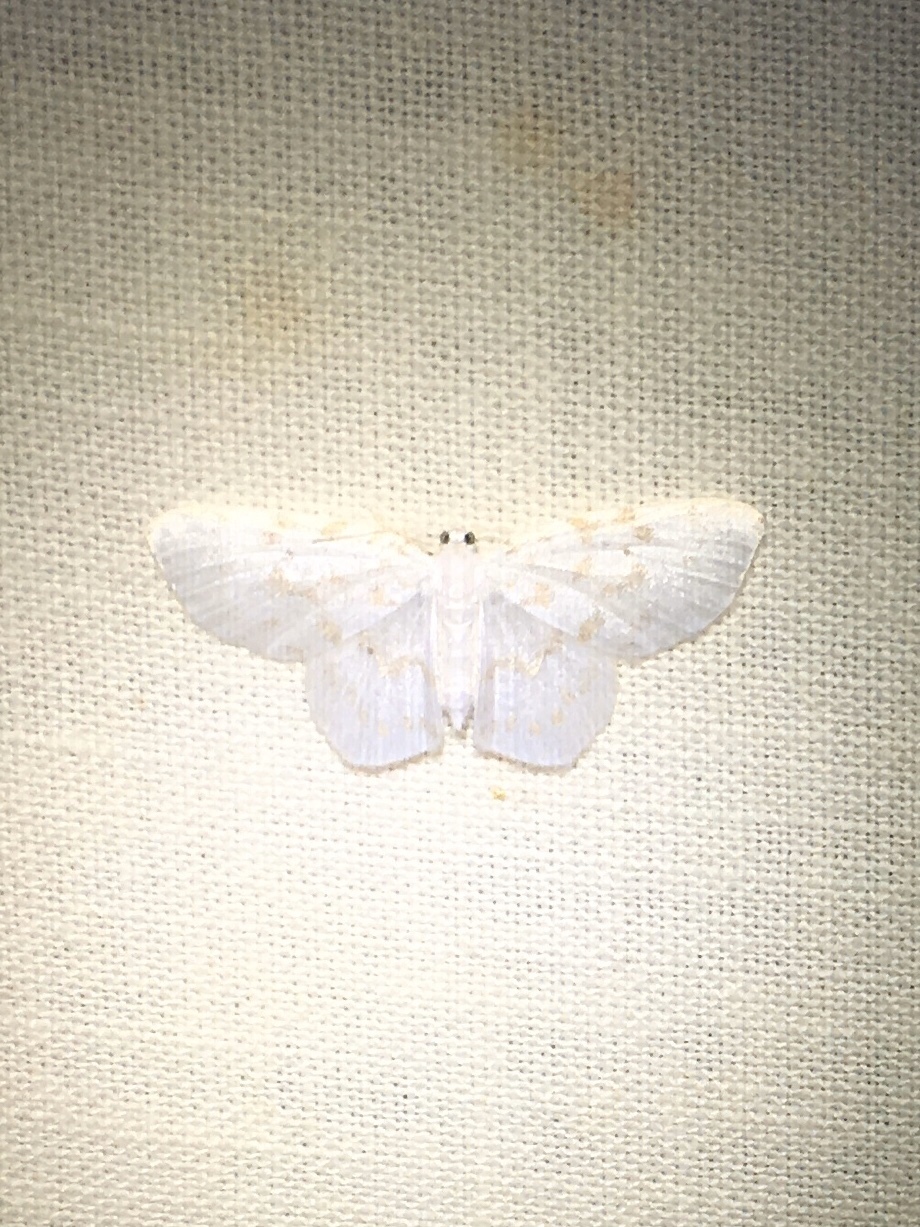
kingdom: Animalia
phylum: Arthropoda
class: Insecta
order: Lepidoptera
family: Geometridae
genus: Hydrelia
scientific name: Hydrelia albifera
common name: Fragile white carpet
